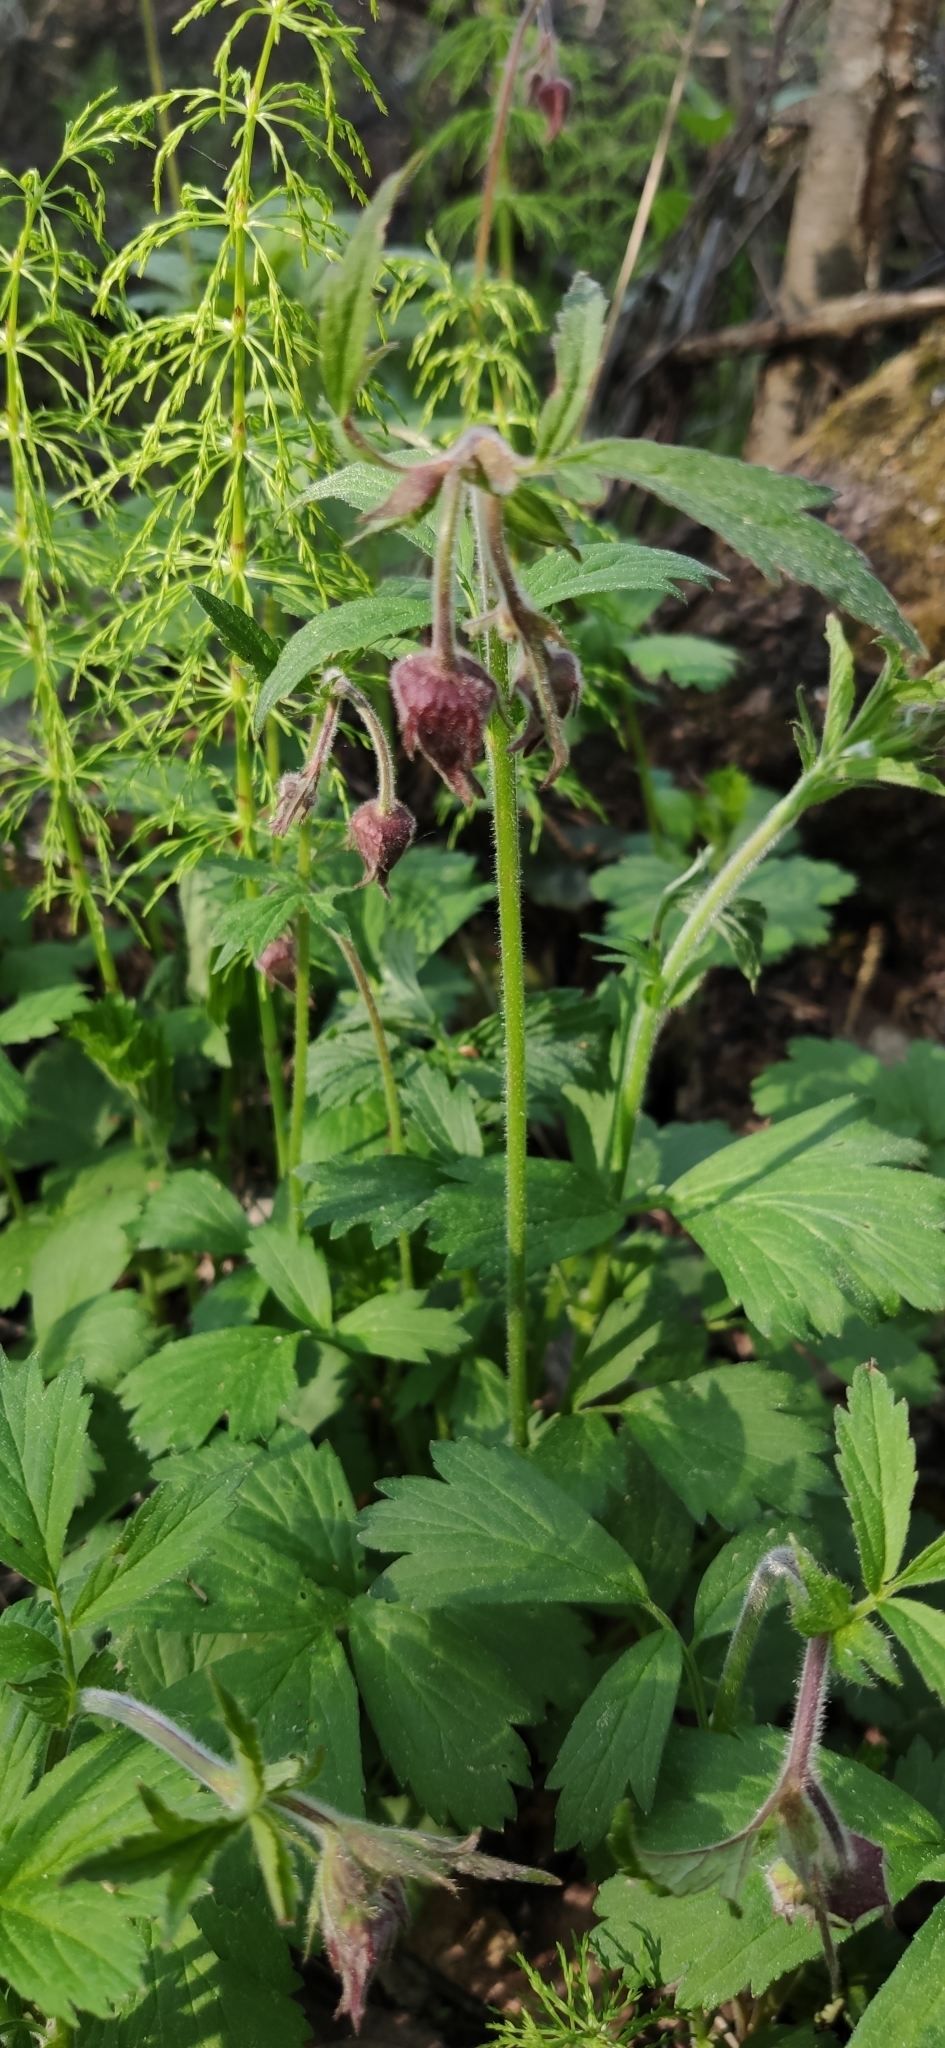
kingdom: Plantae
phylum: Tracheophyta
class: Magnoliopsida
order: Rosales
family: Rosaceae
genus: Geum
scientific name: Geum rivale
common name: Water avens
